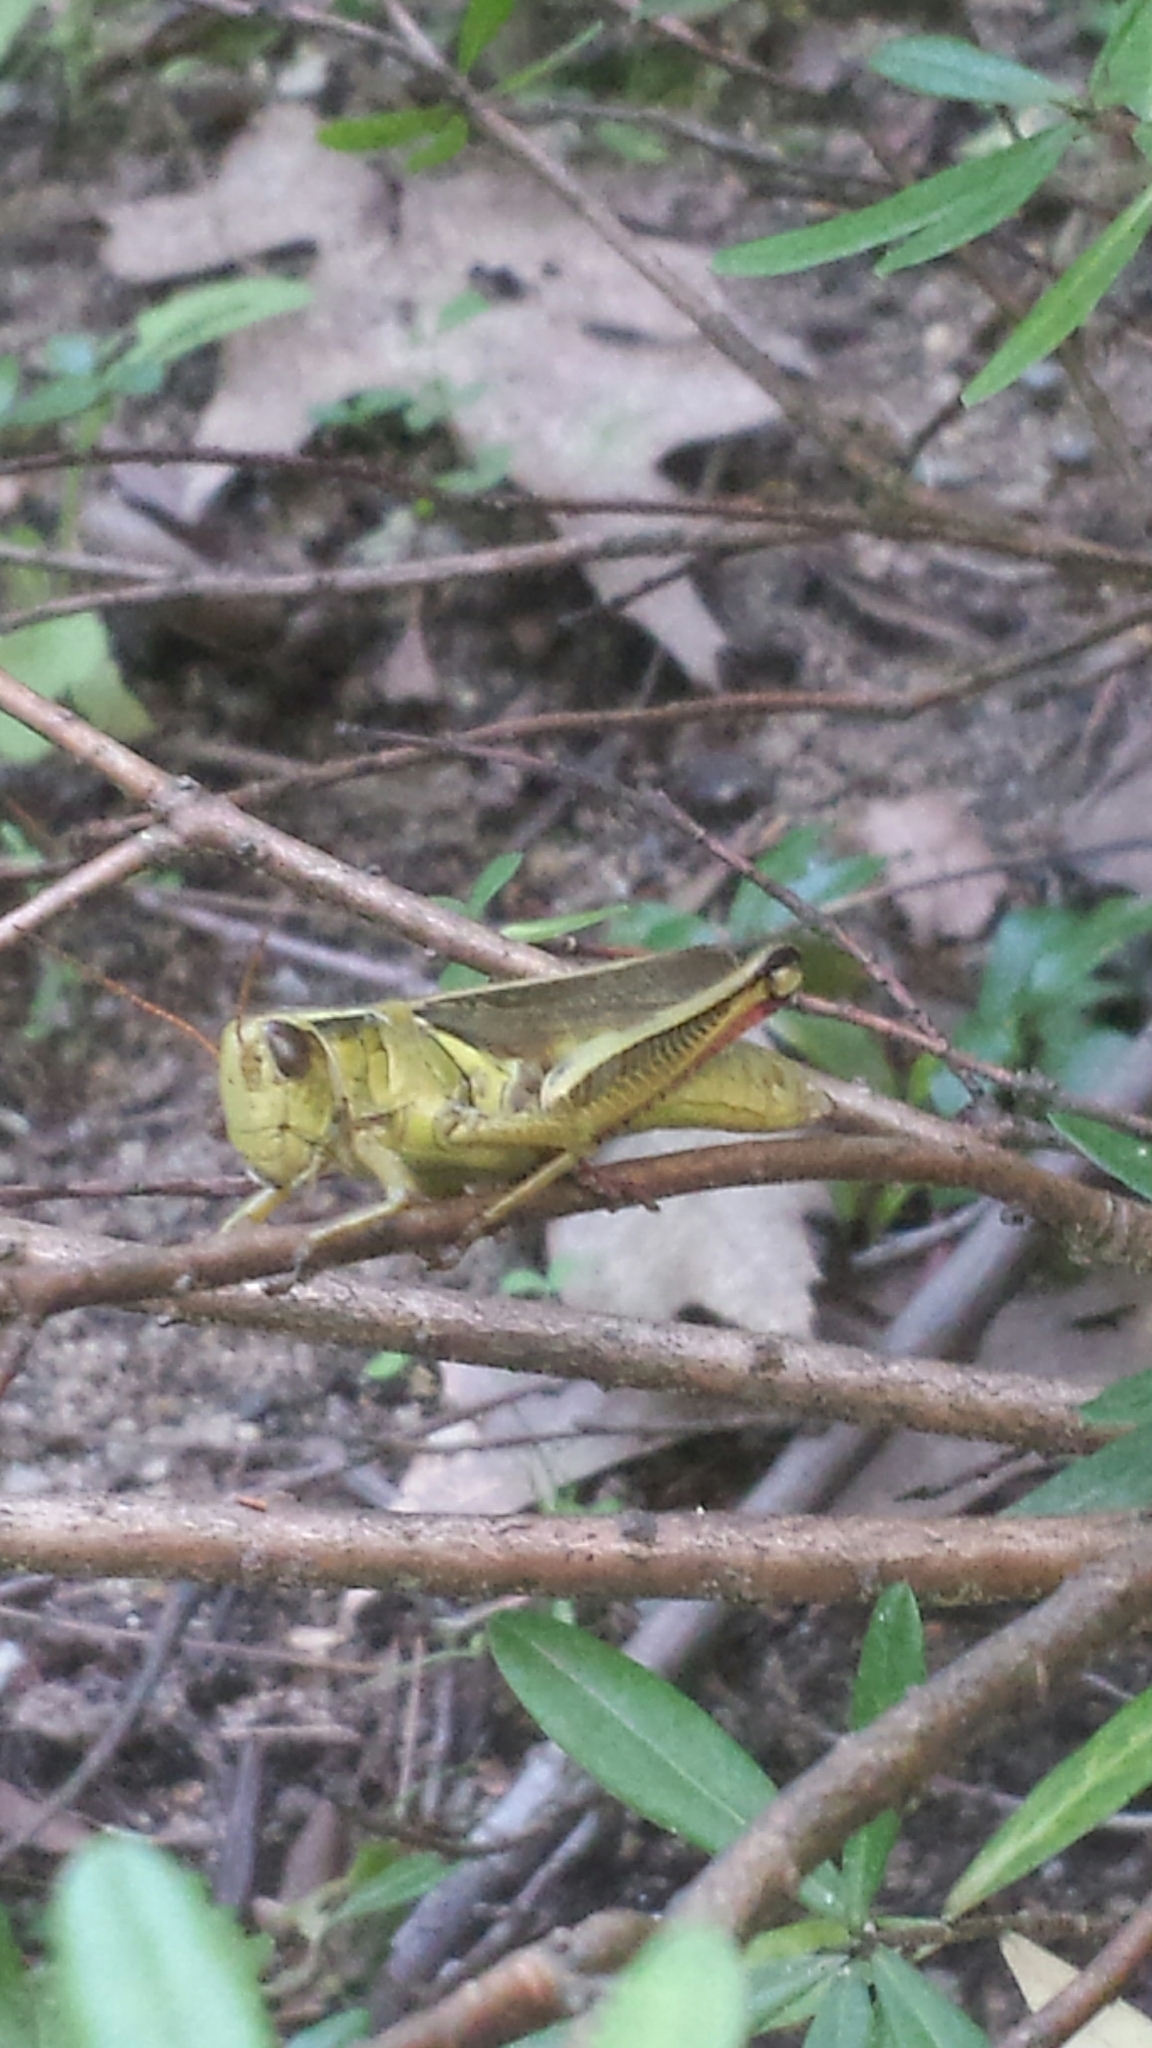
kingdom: Animalia
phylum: Arthropoda
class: Insecta
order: Orthoptera
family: Acrididae
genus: Melanoplus
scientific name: Melanoplus bivittatus
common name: Two-striped grasshopper
